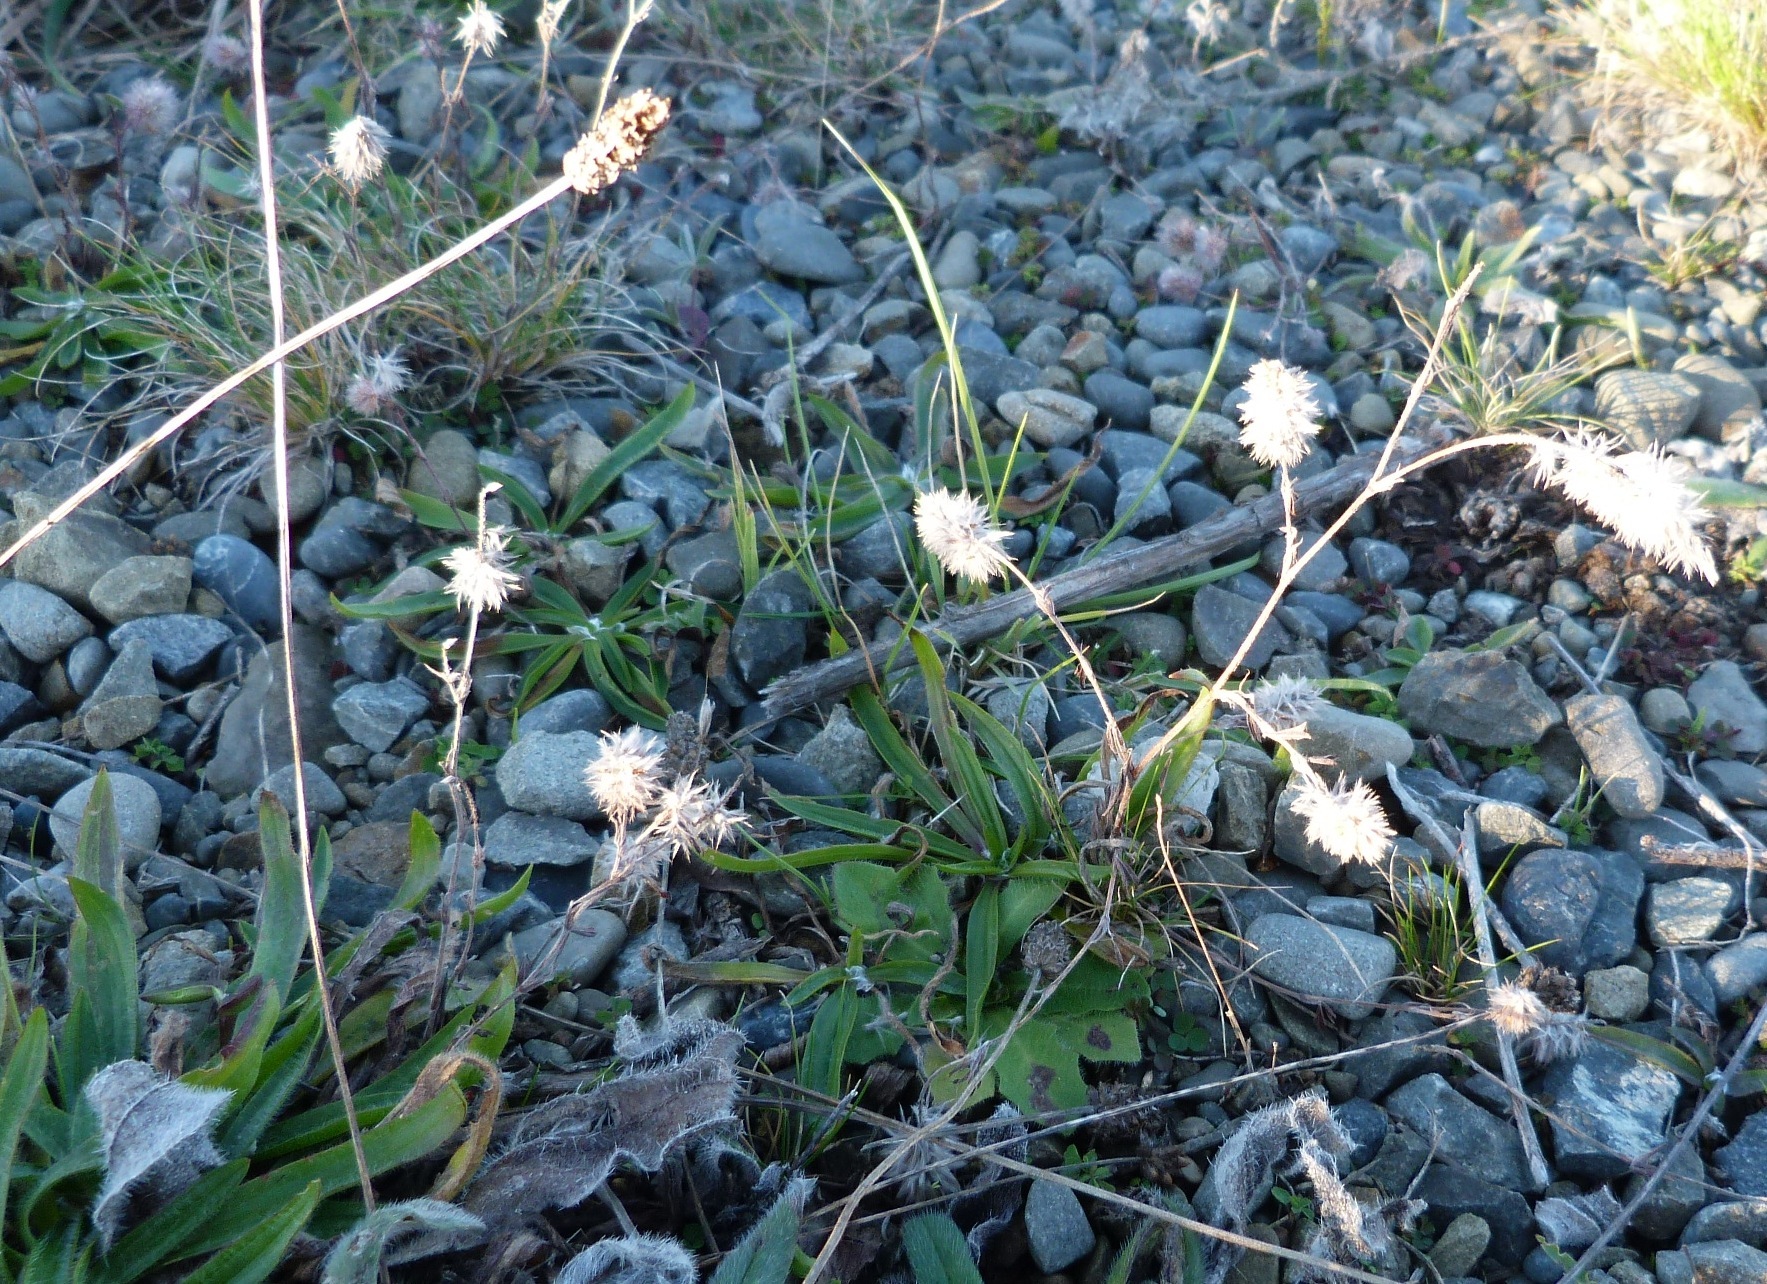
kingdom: Plantae
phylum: Tracheophyta
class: Magnoliopsida
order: Fabales
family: Fabaceae
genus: Trifolium
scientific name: Trifolium arvense
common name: Hare's-foot clover
